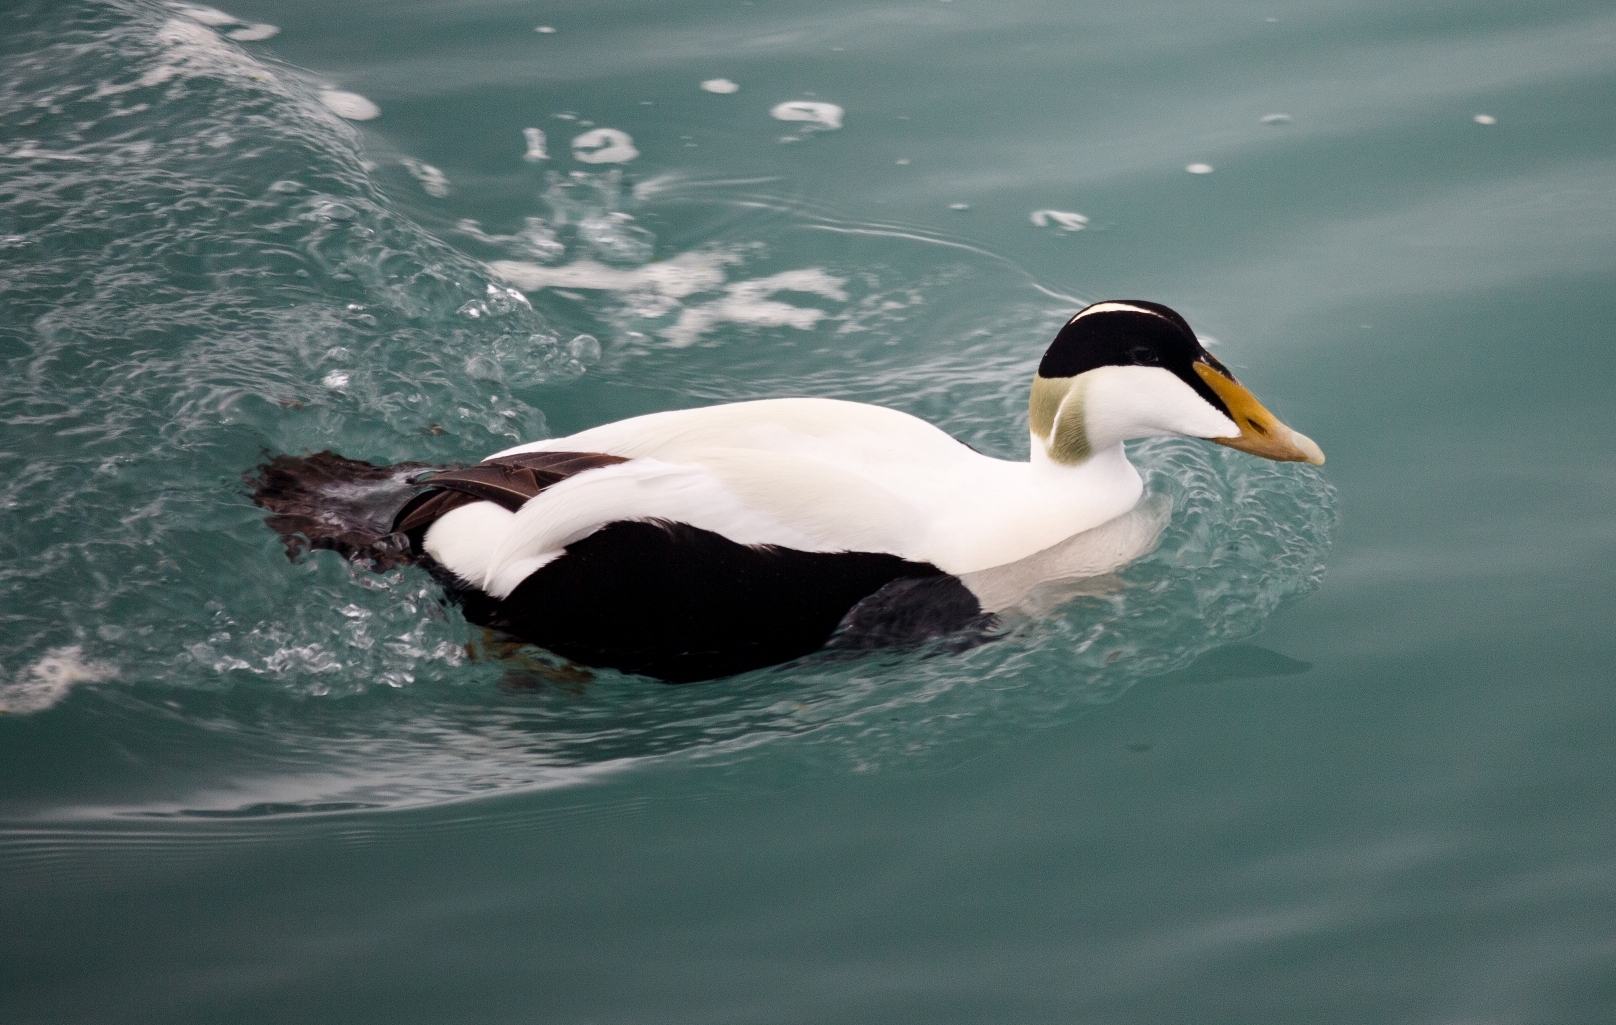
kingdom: Animalia
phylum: Chordata
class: Aves
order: Anseriformes
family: Anatidae
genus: Somateria
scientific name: Somateria mollissima
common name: Common eider
